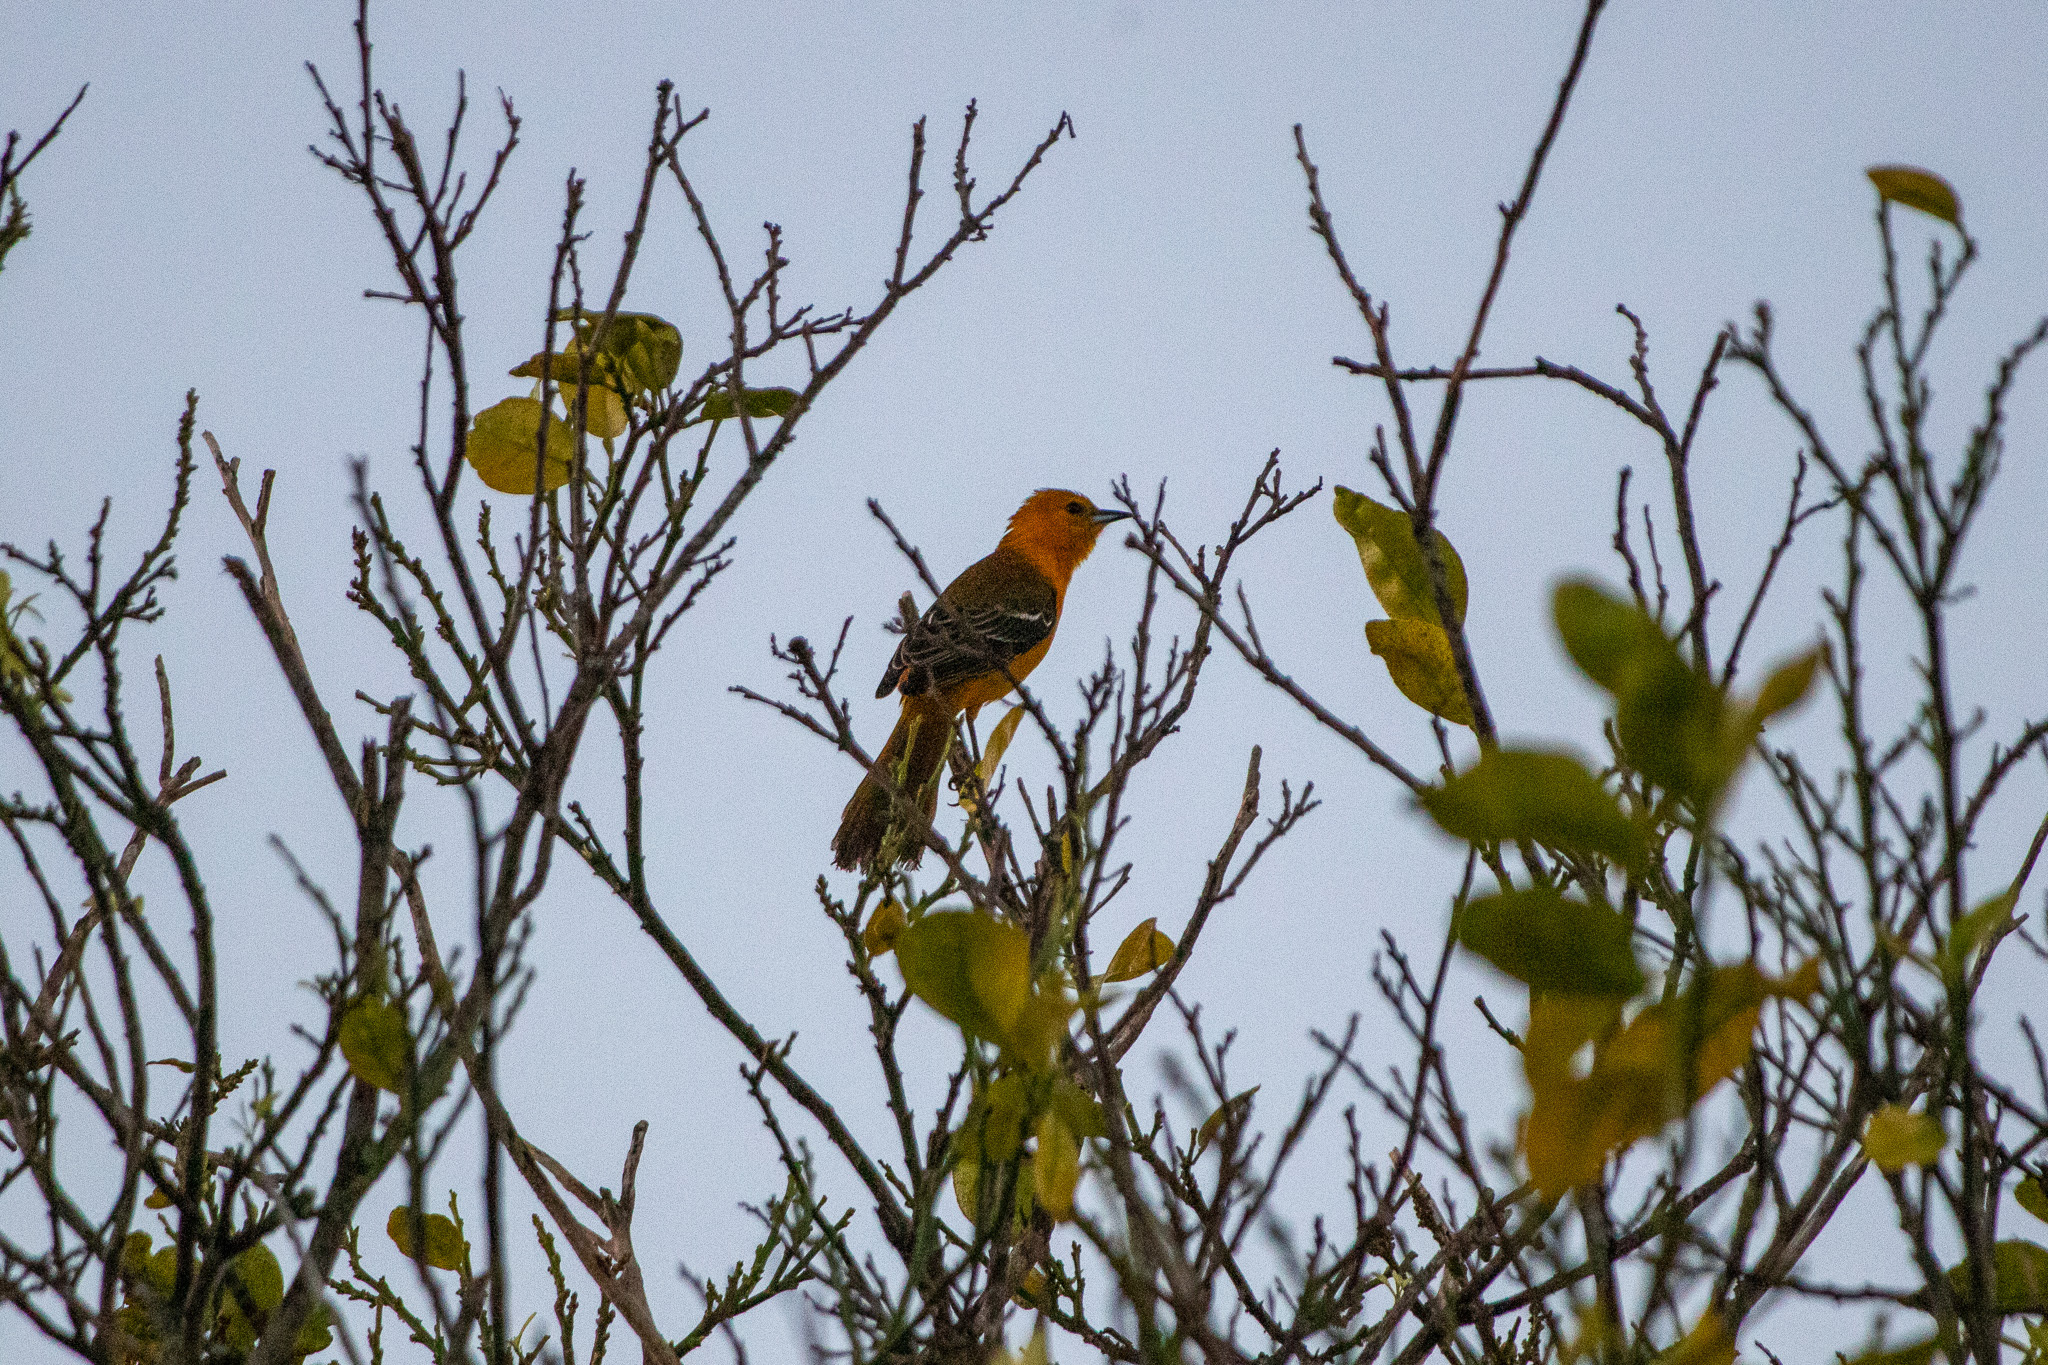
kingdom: Animalia
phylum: Chordata
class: Aves
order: Passeriformes
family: Icteridae
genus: Icterus
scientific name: Icterus cucullatus
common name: Hooded oriole
